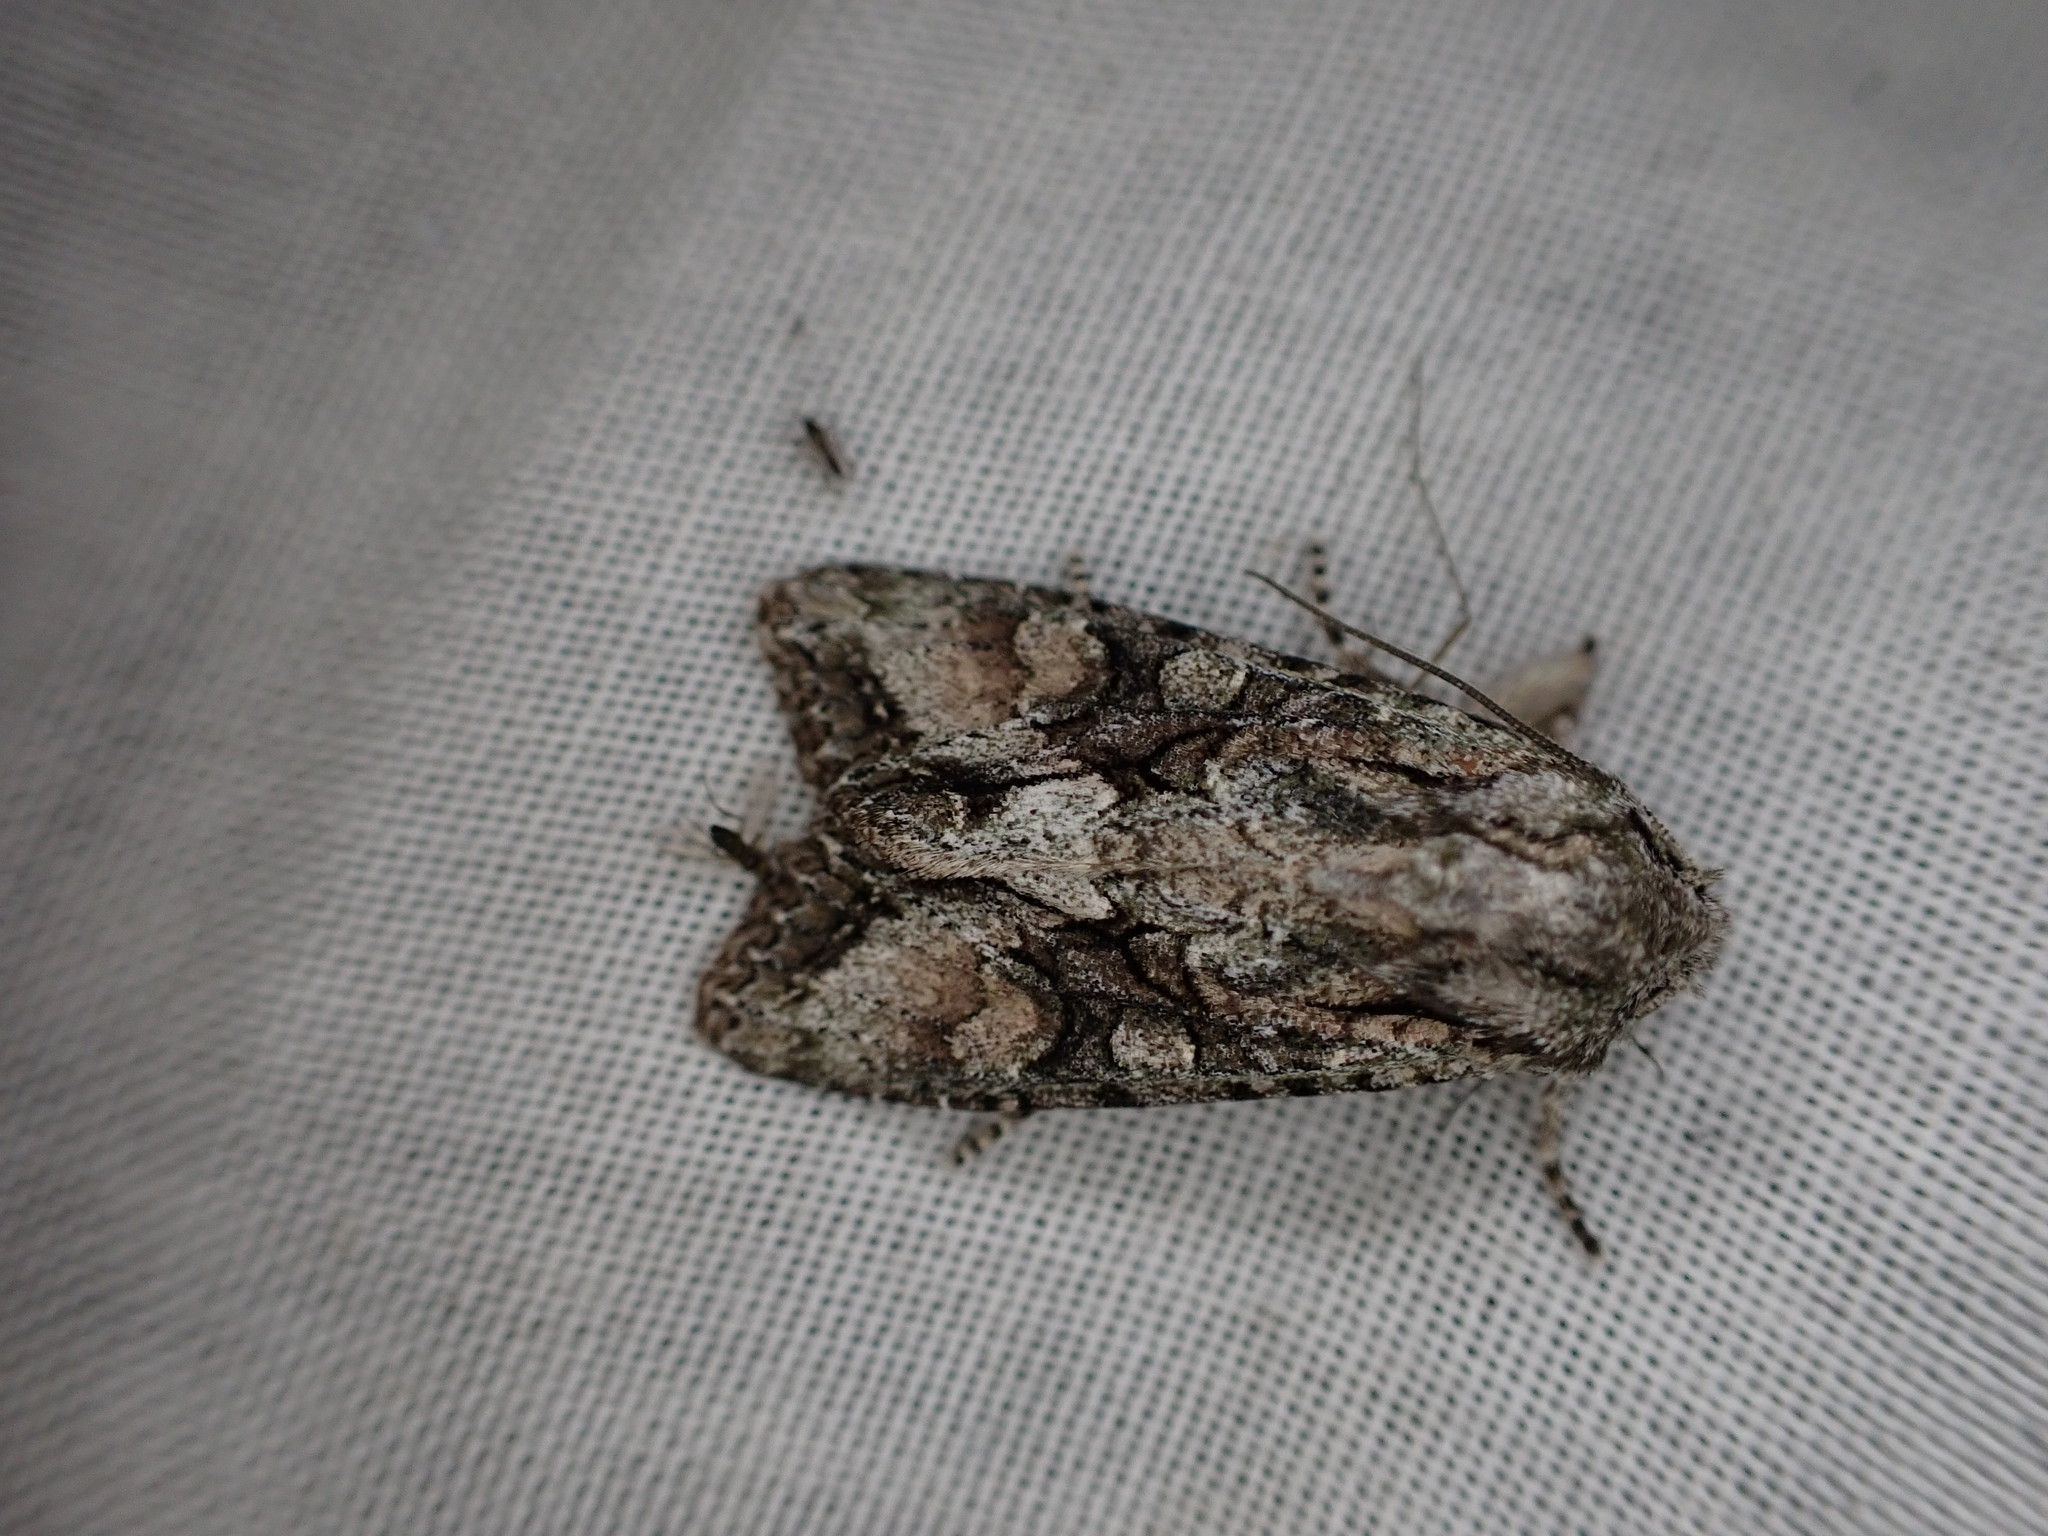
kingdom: Animalia
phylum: Arthropoda
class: Insecta
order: Lepidoptera
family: Noctuidae
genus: Ichneutica
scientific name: Ichneutica mutans
